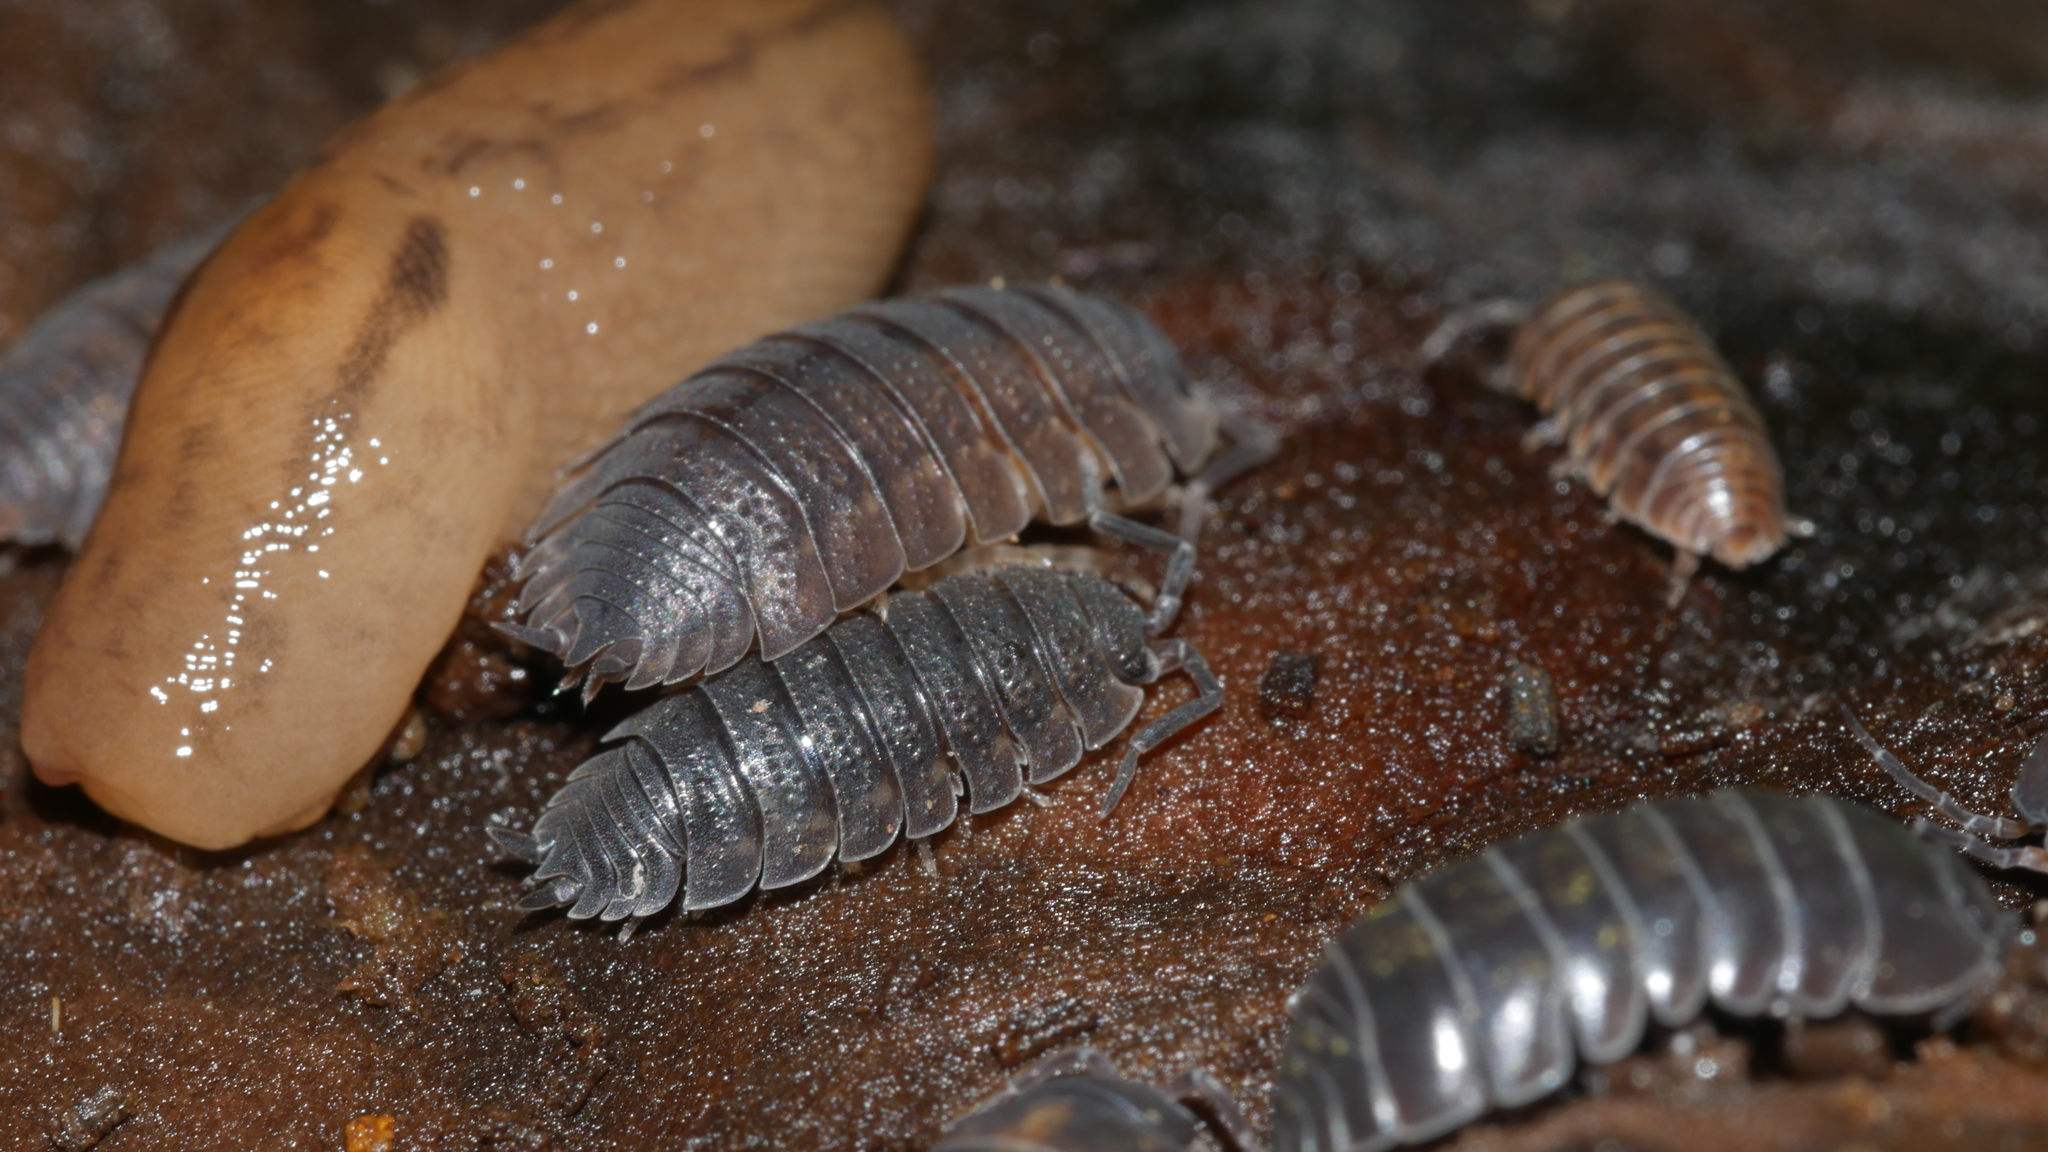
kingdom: Animalia
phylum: Arthropoda
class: Malacostraca
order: Isopoda
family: Porcellionidae
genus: Porcellio
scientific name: Porcellio scaber
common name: Common rough woodlouse
